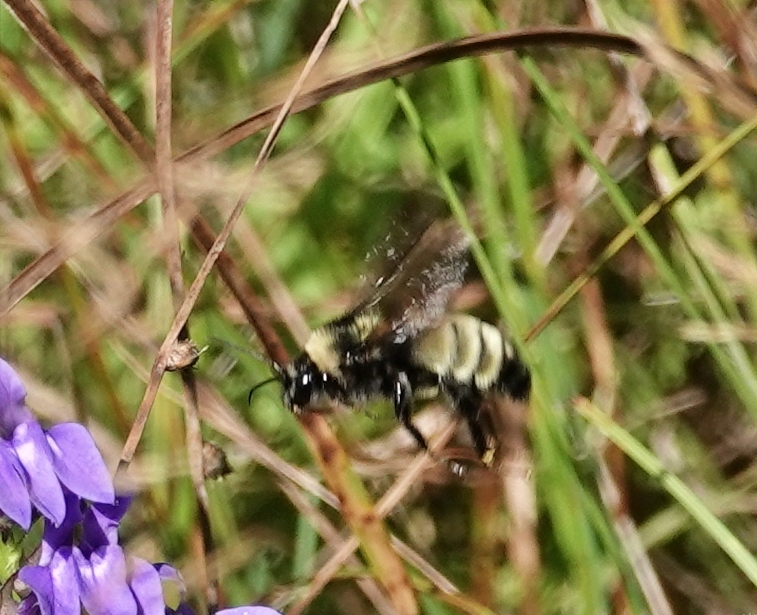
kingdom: Animalia
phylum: Arthropoda
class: Insecta
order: Hymenoptera
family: Apidae
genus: Bombus
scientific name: Bombus pensylvanicus
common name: Bumble bee
